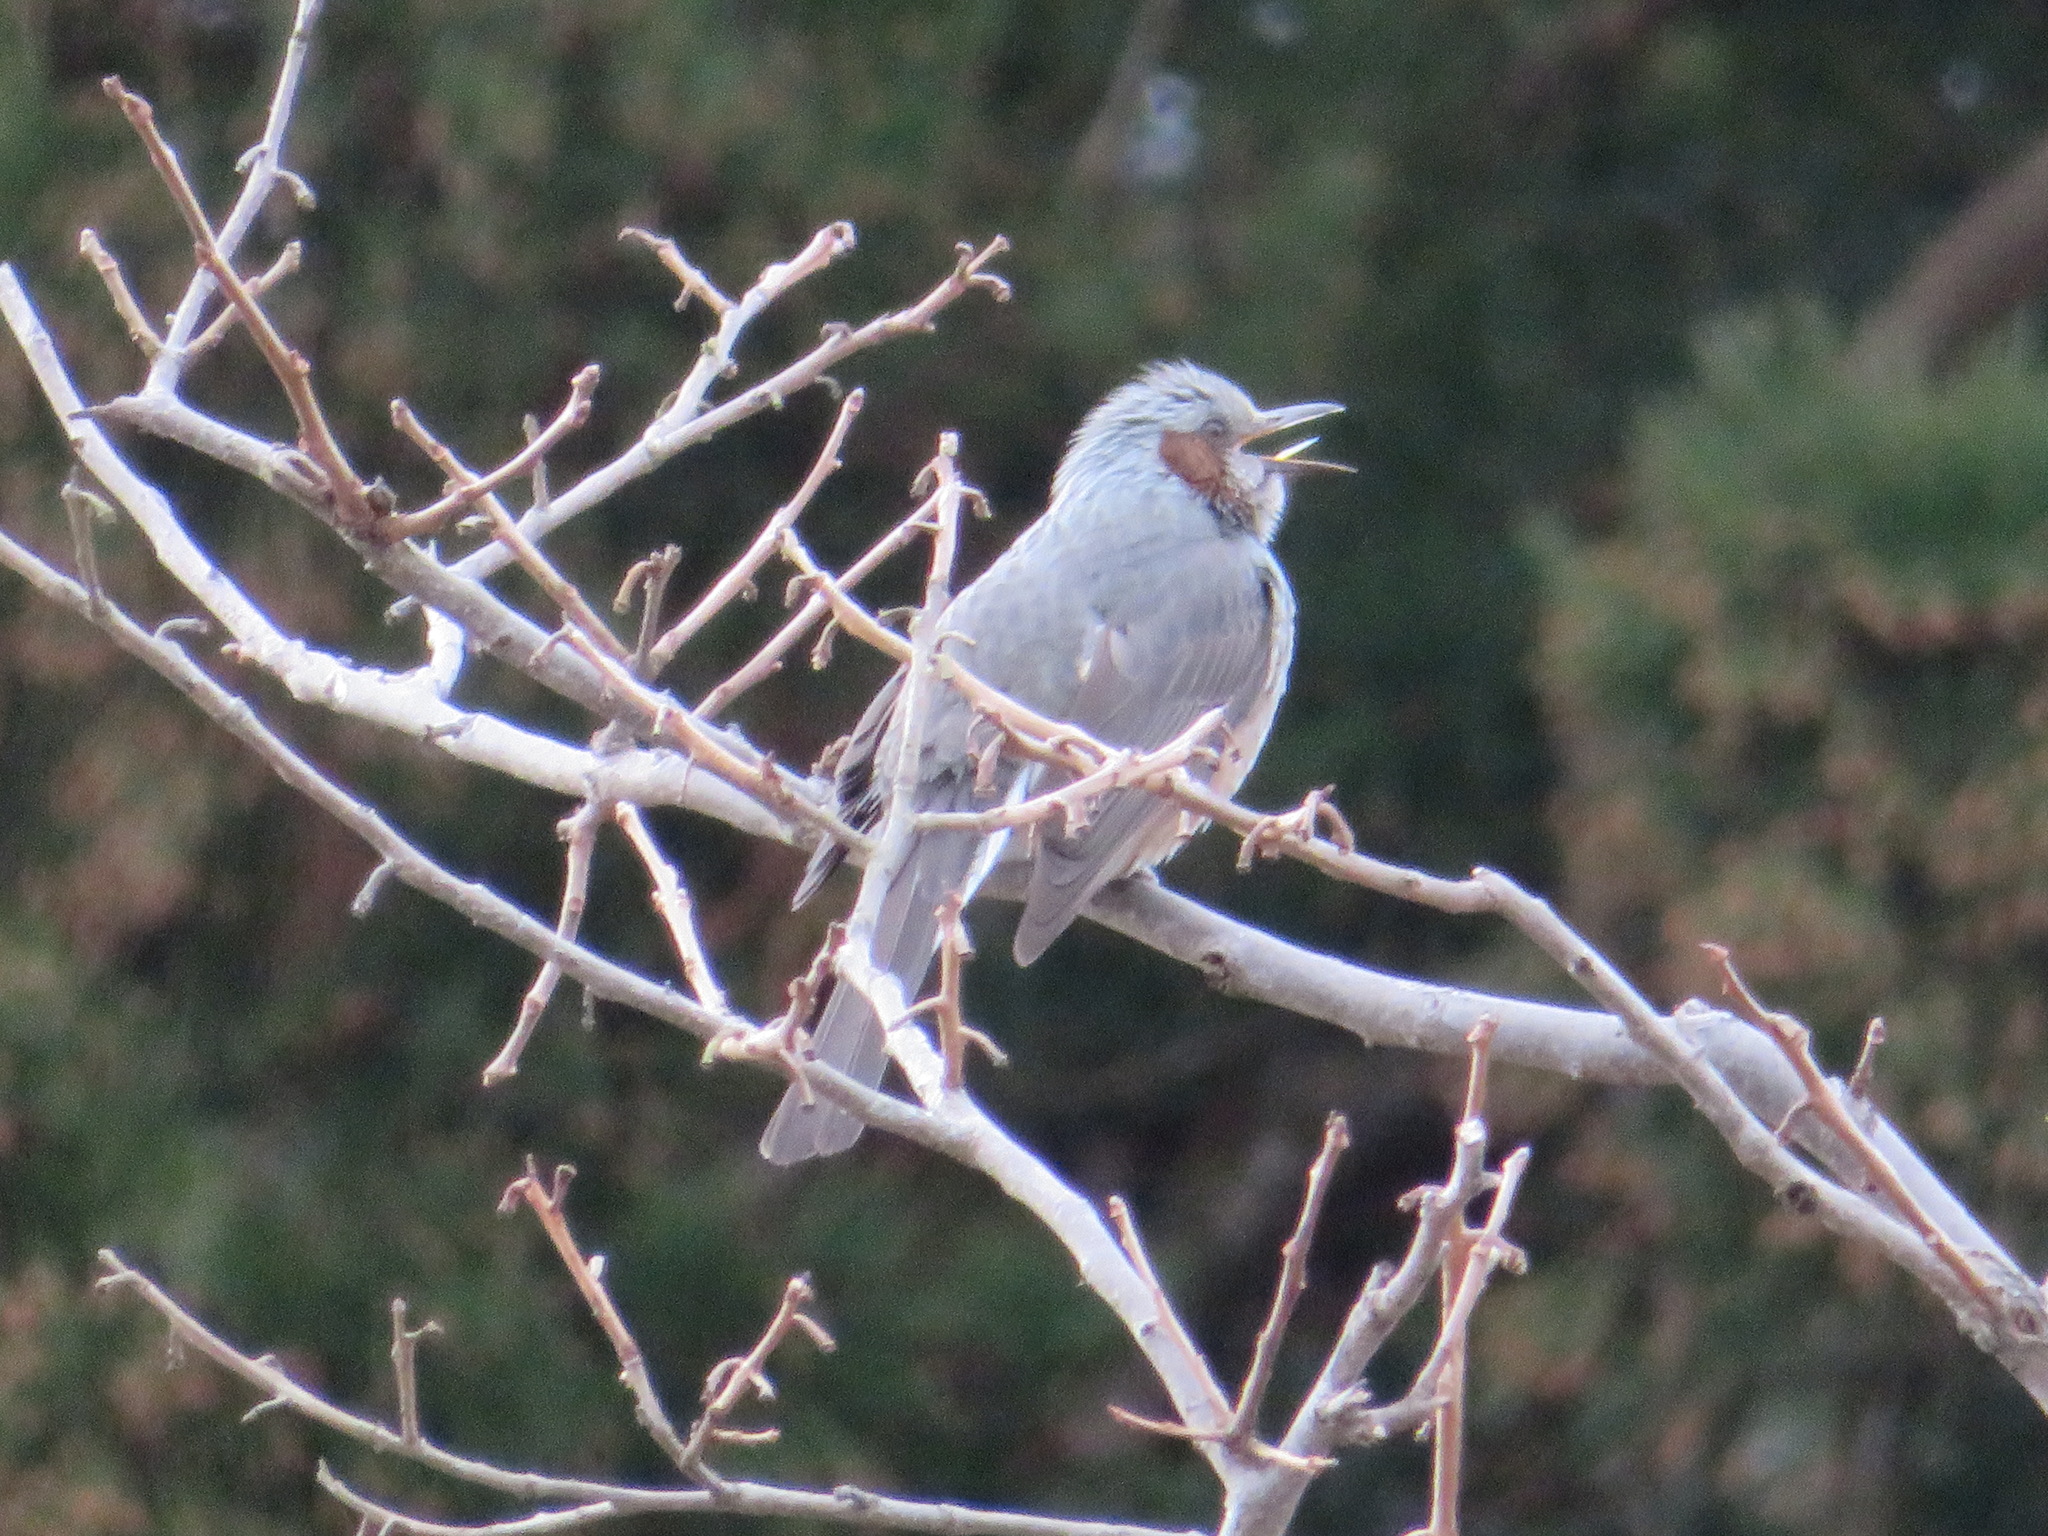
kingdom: Animalia
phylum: Chordata
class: Aves
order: Passeriformes
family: Pycnonotidae
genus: Hypsipetes
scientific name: Hypsipetes amaurotis
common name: Brown-eared bulbul
